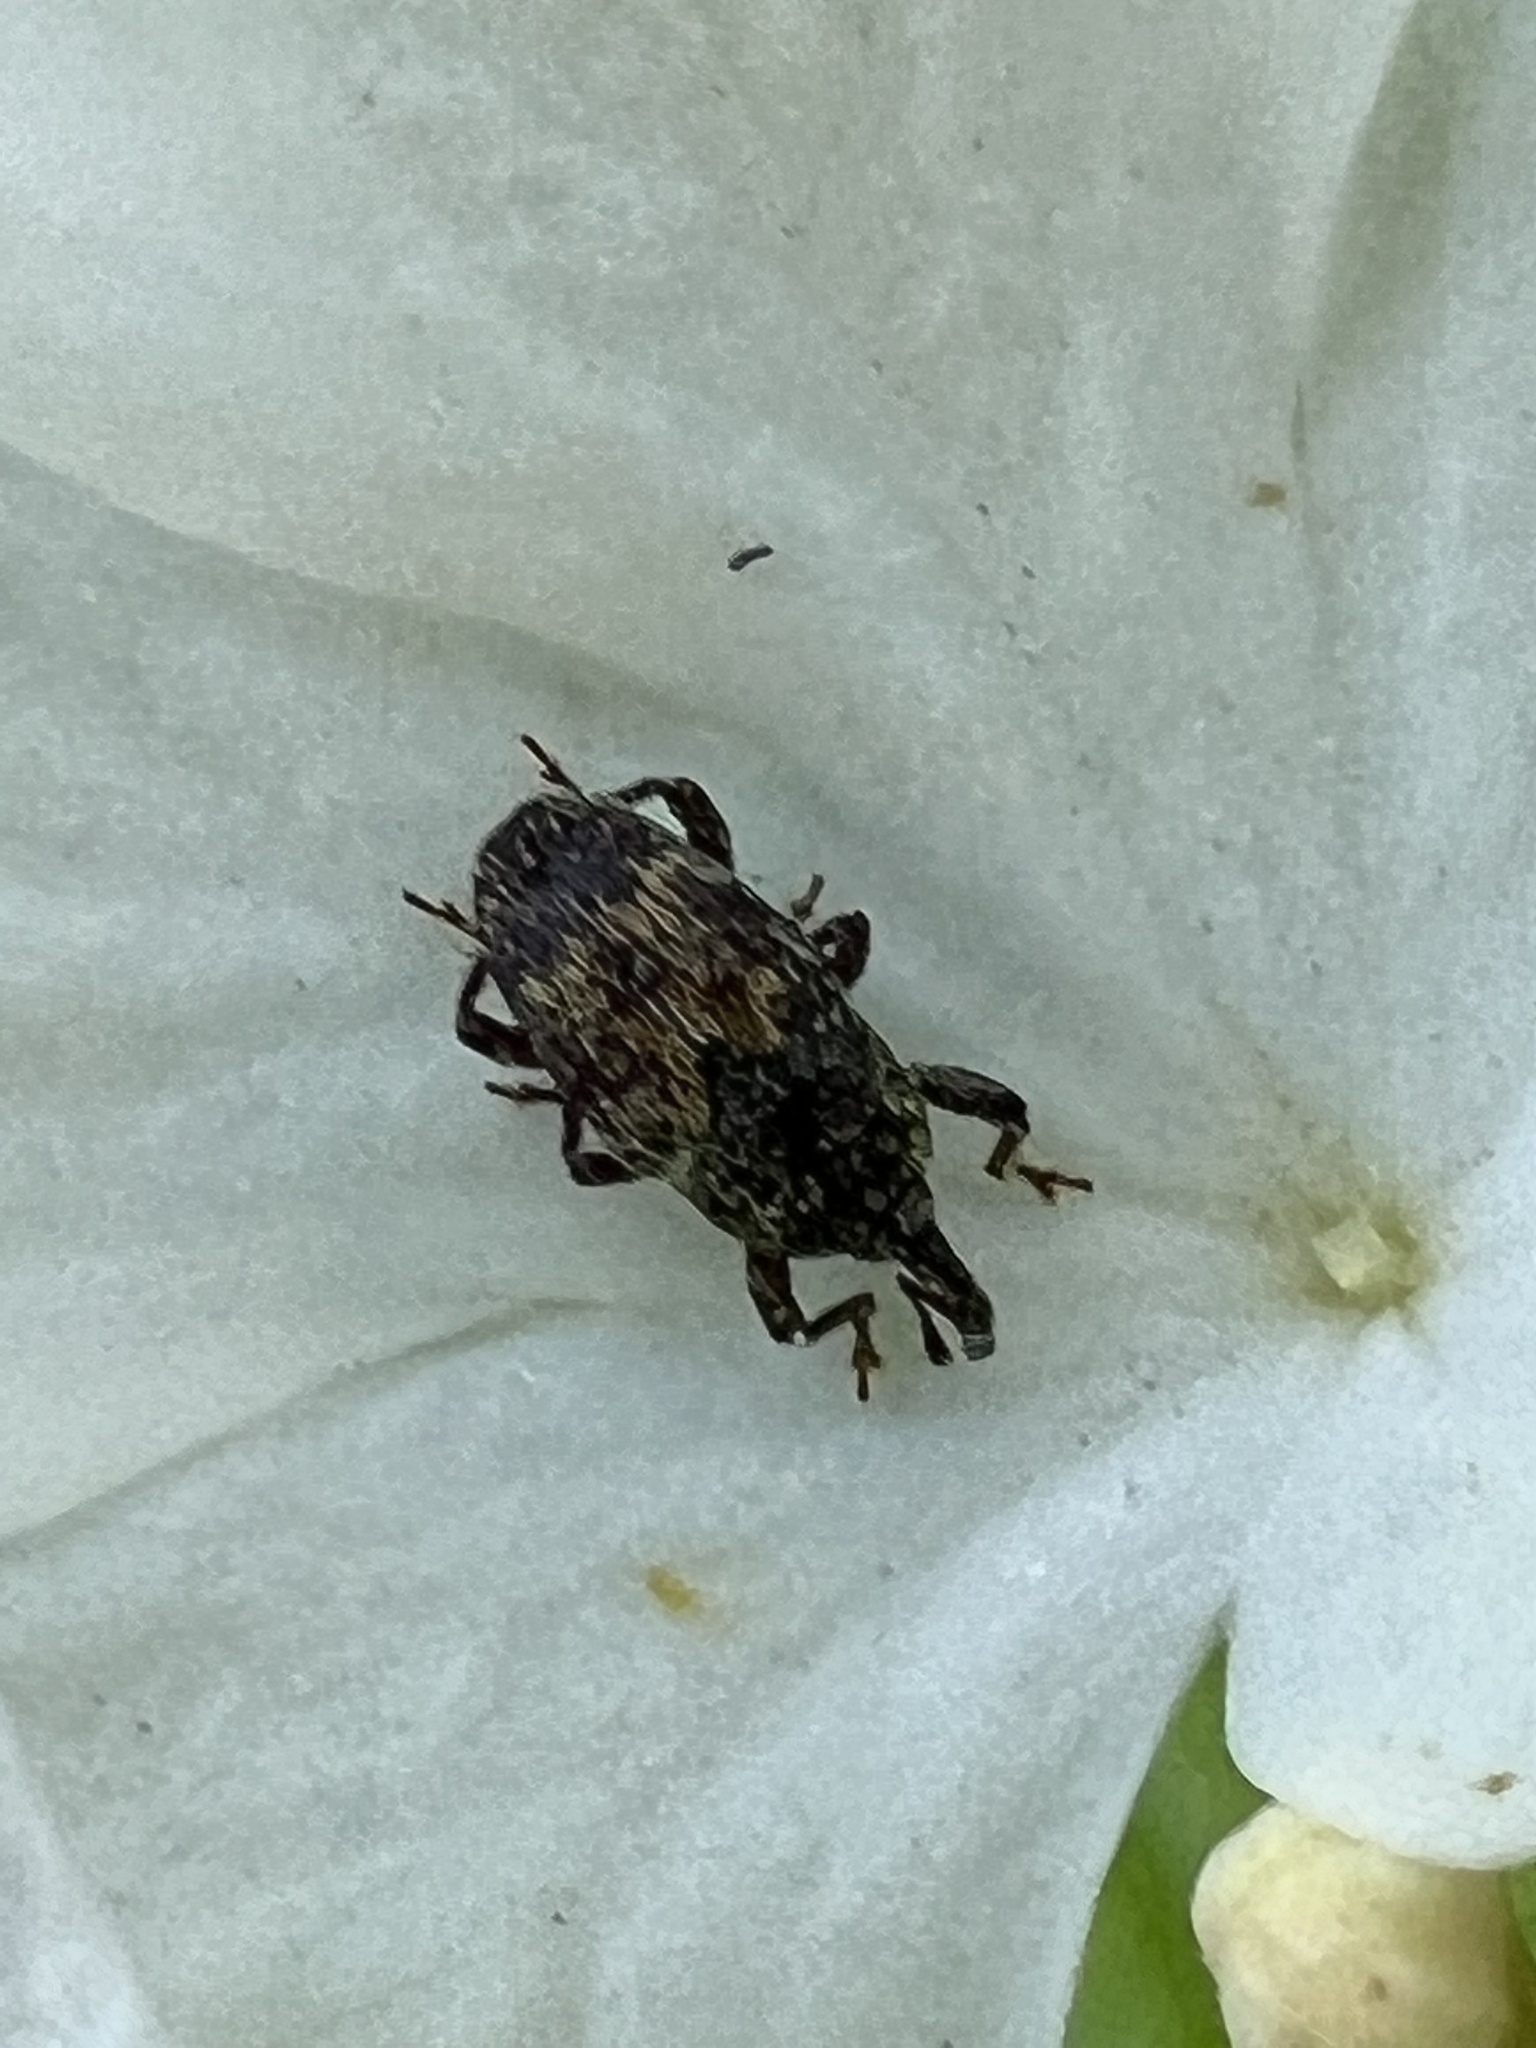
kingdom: Animalia
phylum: Arthropoda
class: Insecta
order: Coleoptera
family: Curculionidae
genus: Glyptobaris
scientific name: Glyptobaris lecontei
